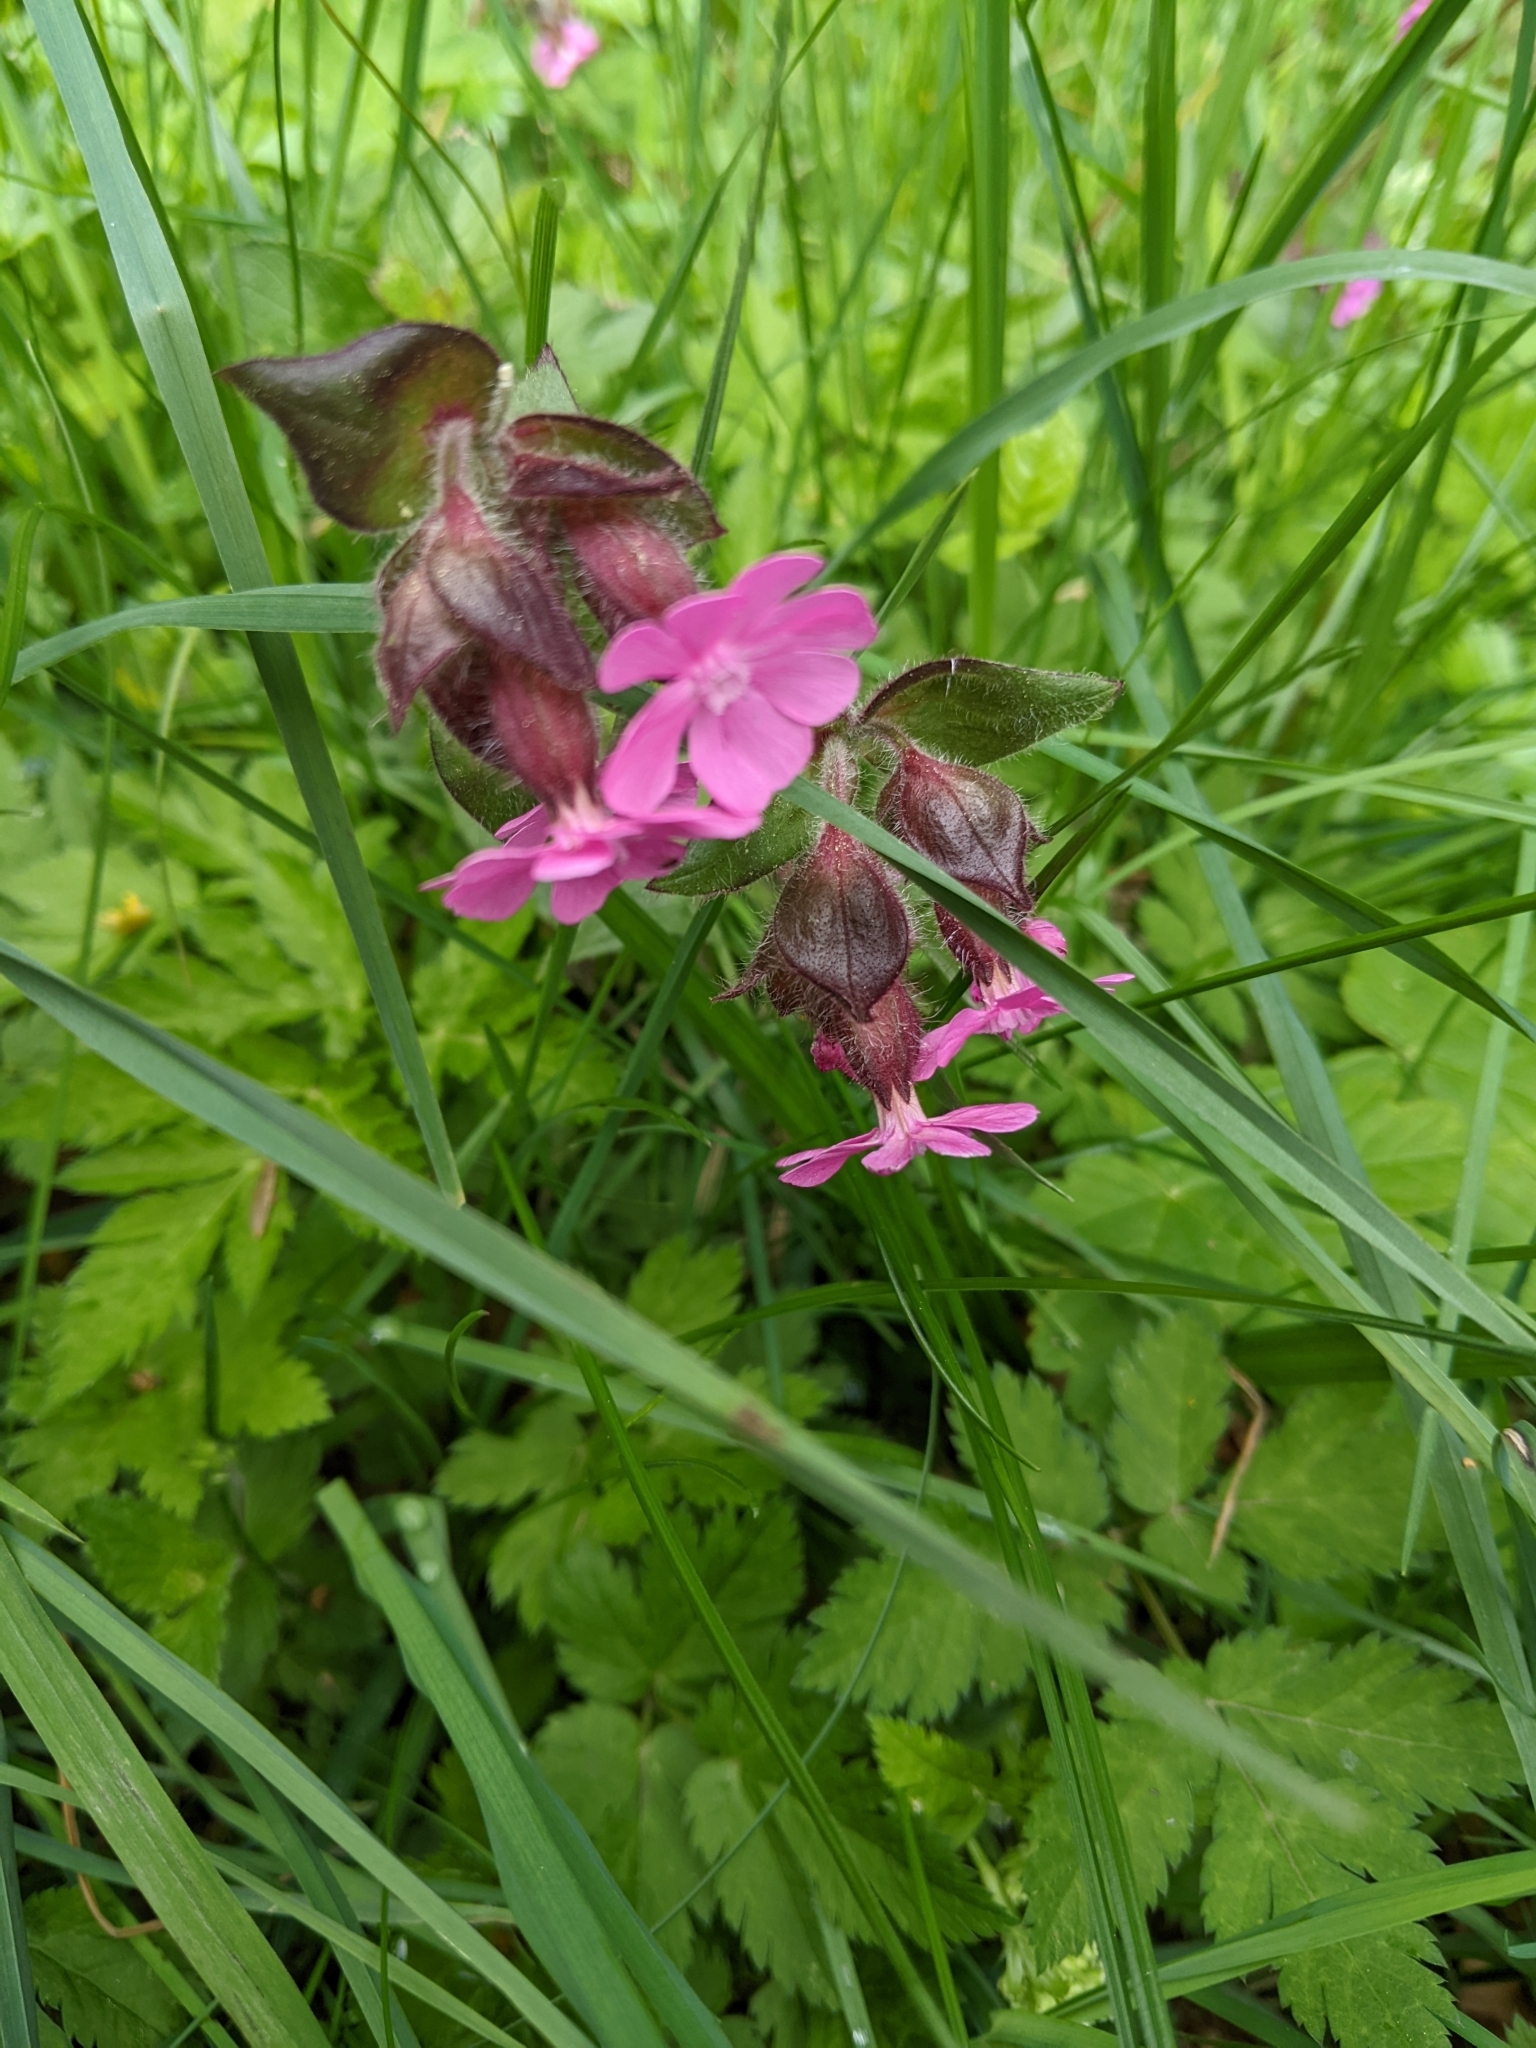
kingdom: Plantae
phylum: Tracheophyta
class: Magnoliopsida
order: Caryophyllales
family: Caryophyllaceae
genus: Silene
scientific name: Silene dioica
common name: Red campion
